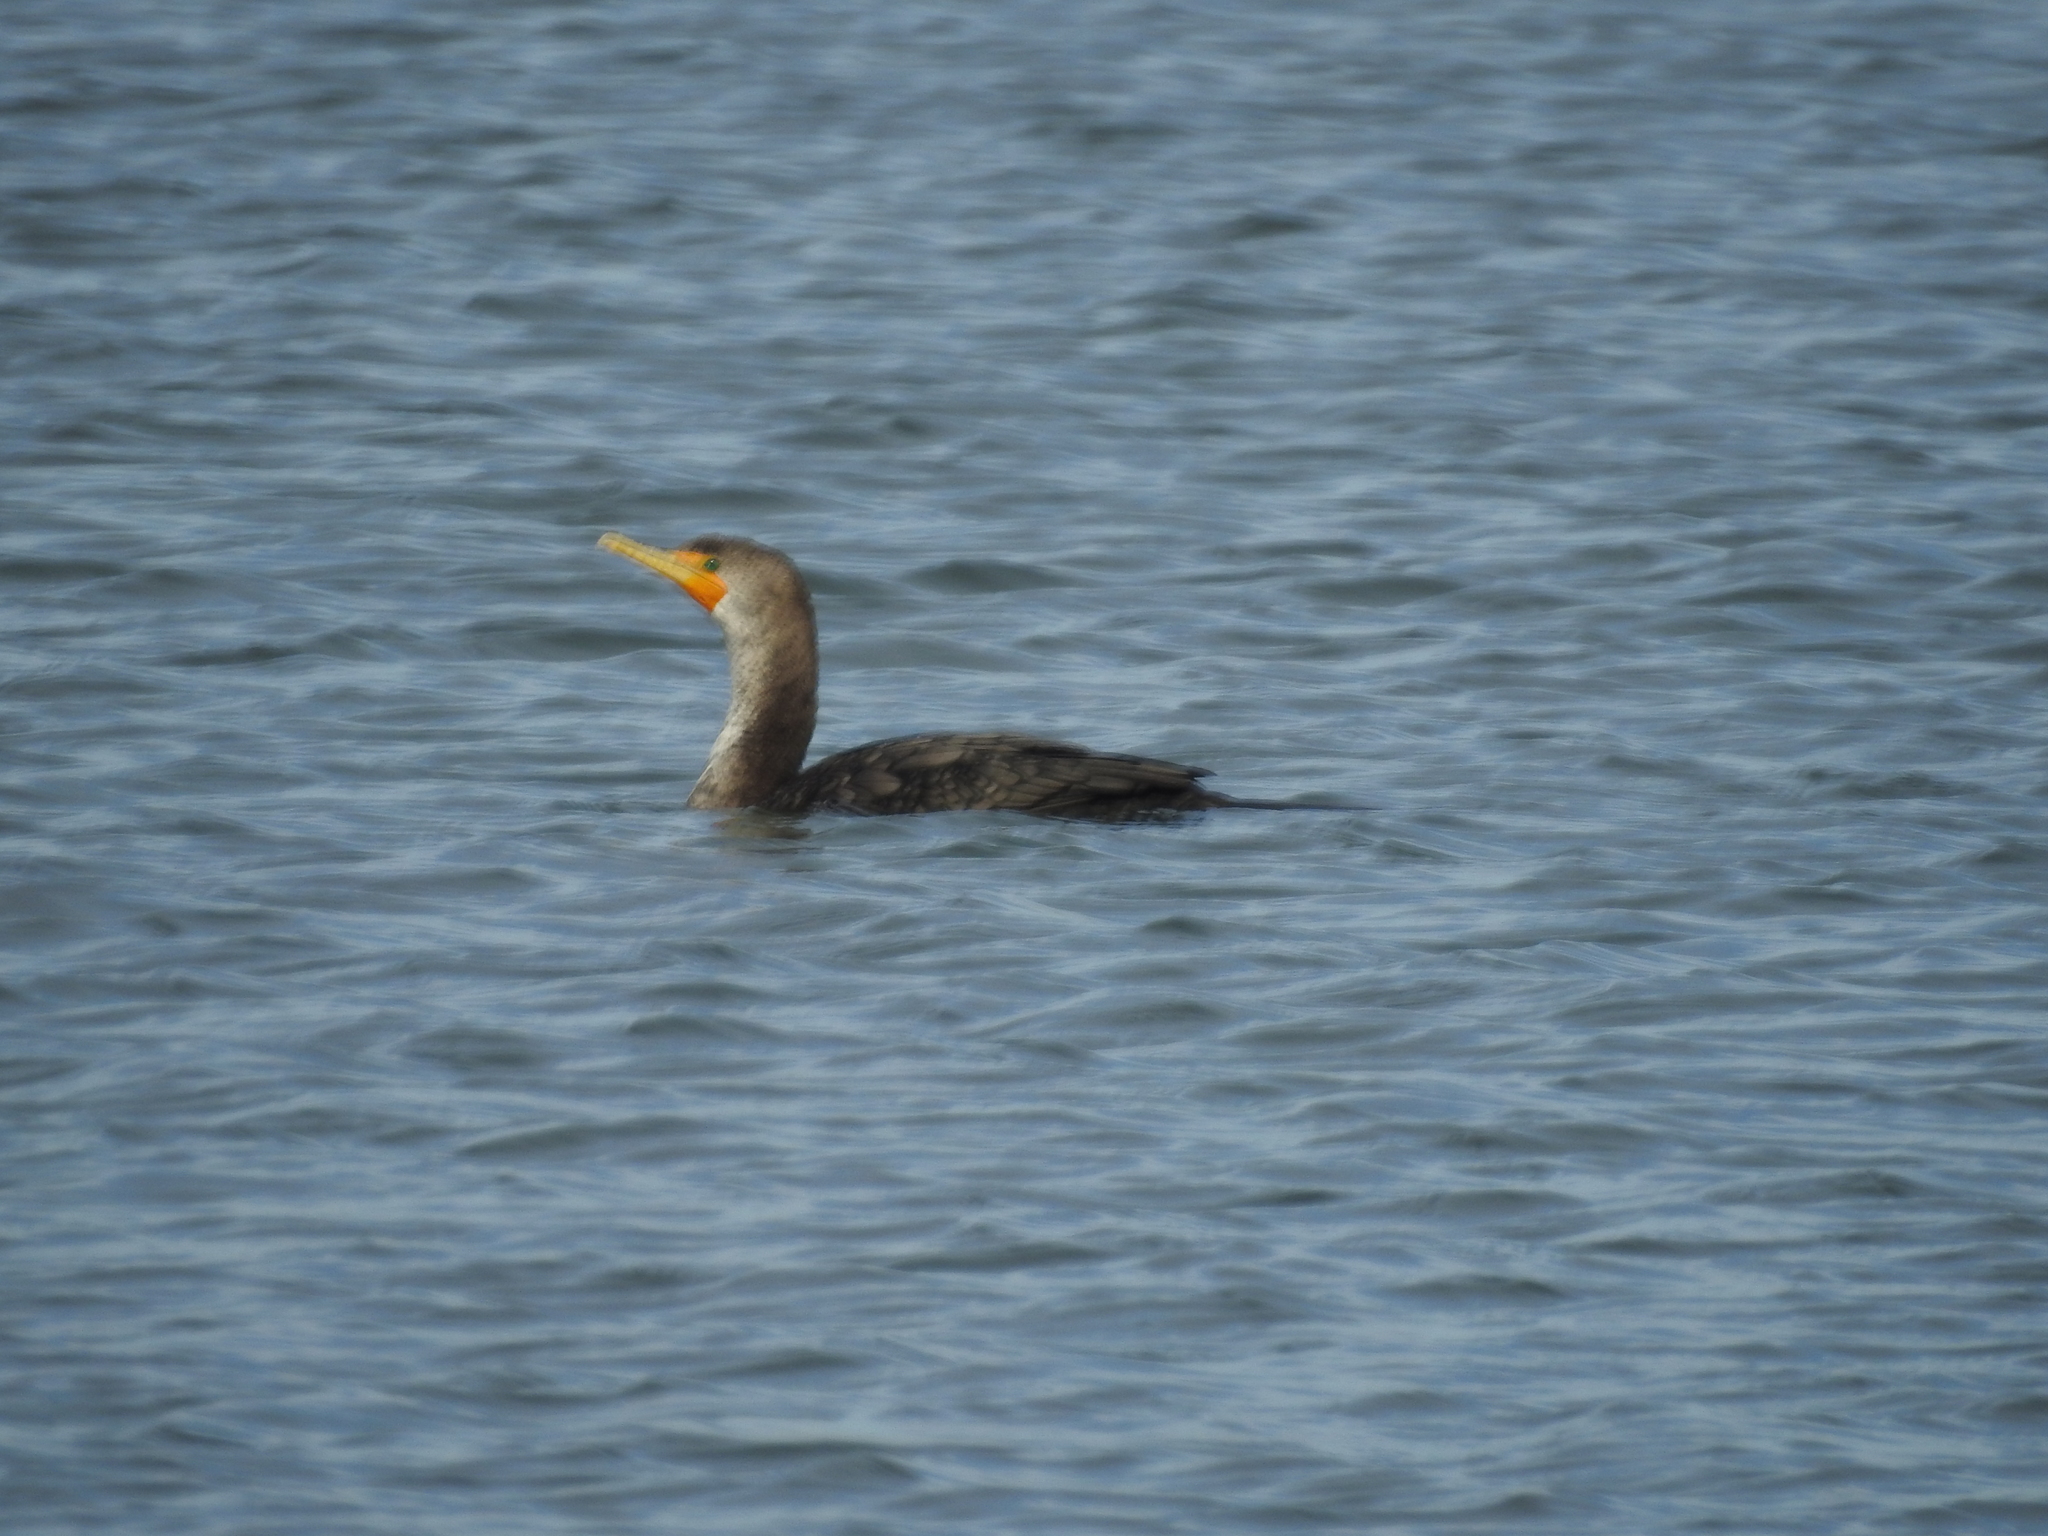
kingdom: Animalia
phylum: Chordata
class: Aves
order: Suliformes
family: Phalacrocoracidae
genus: Phalacrocorax
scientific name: Phalacrocorax auritus
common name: Double-crested cormorant
